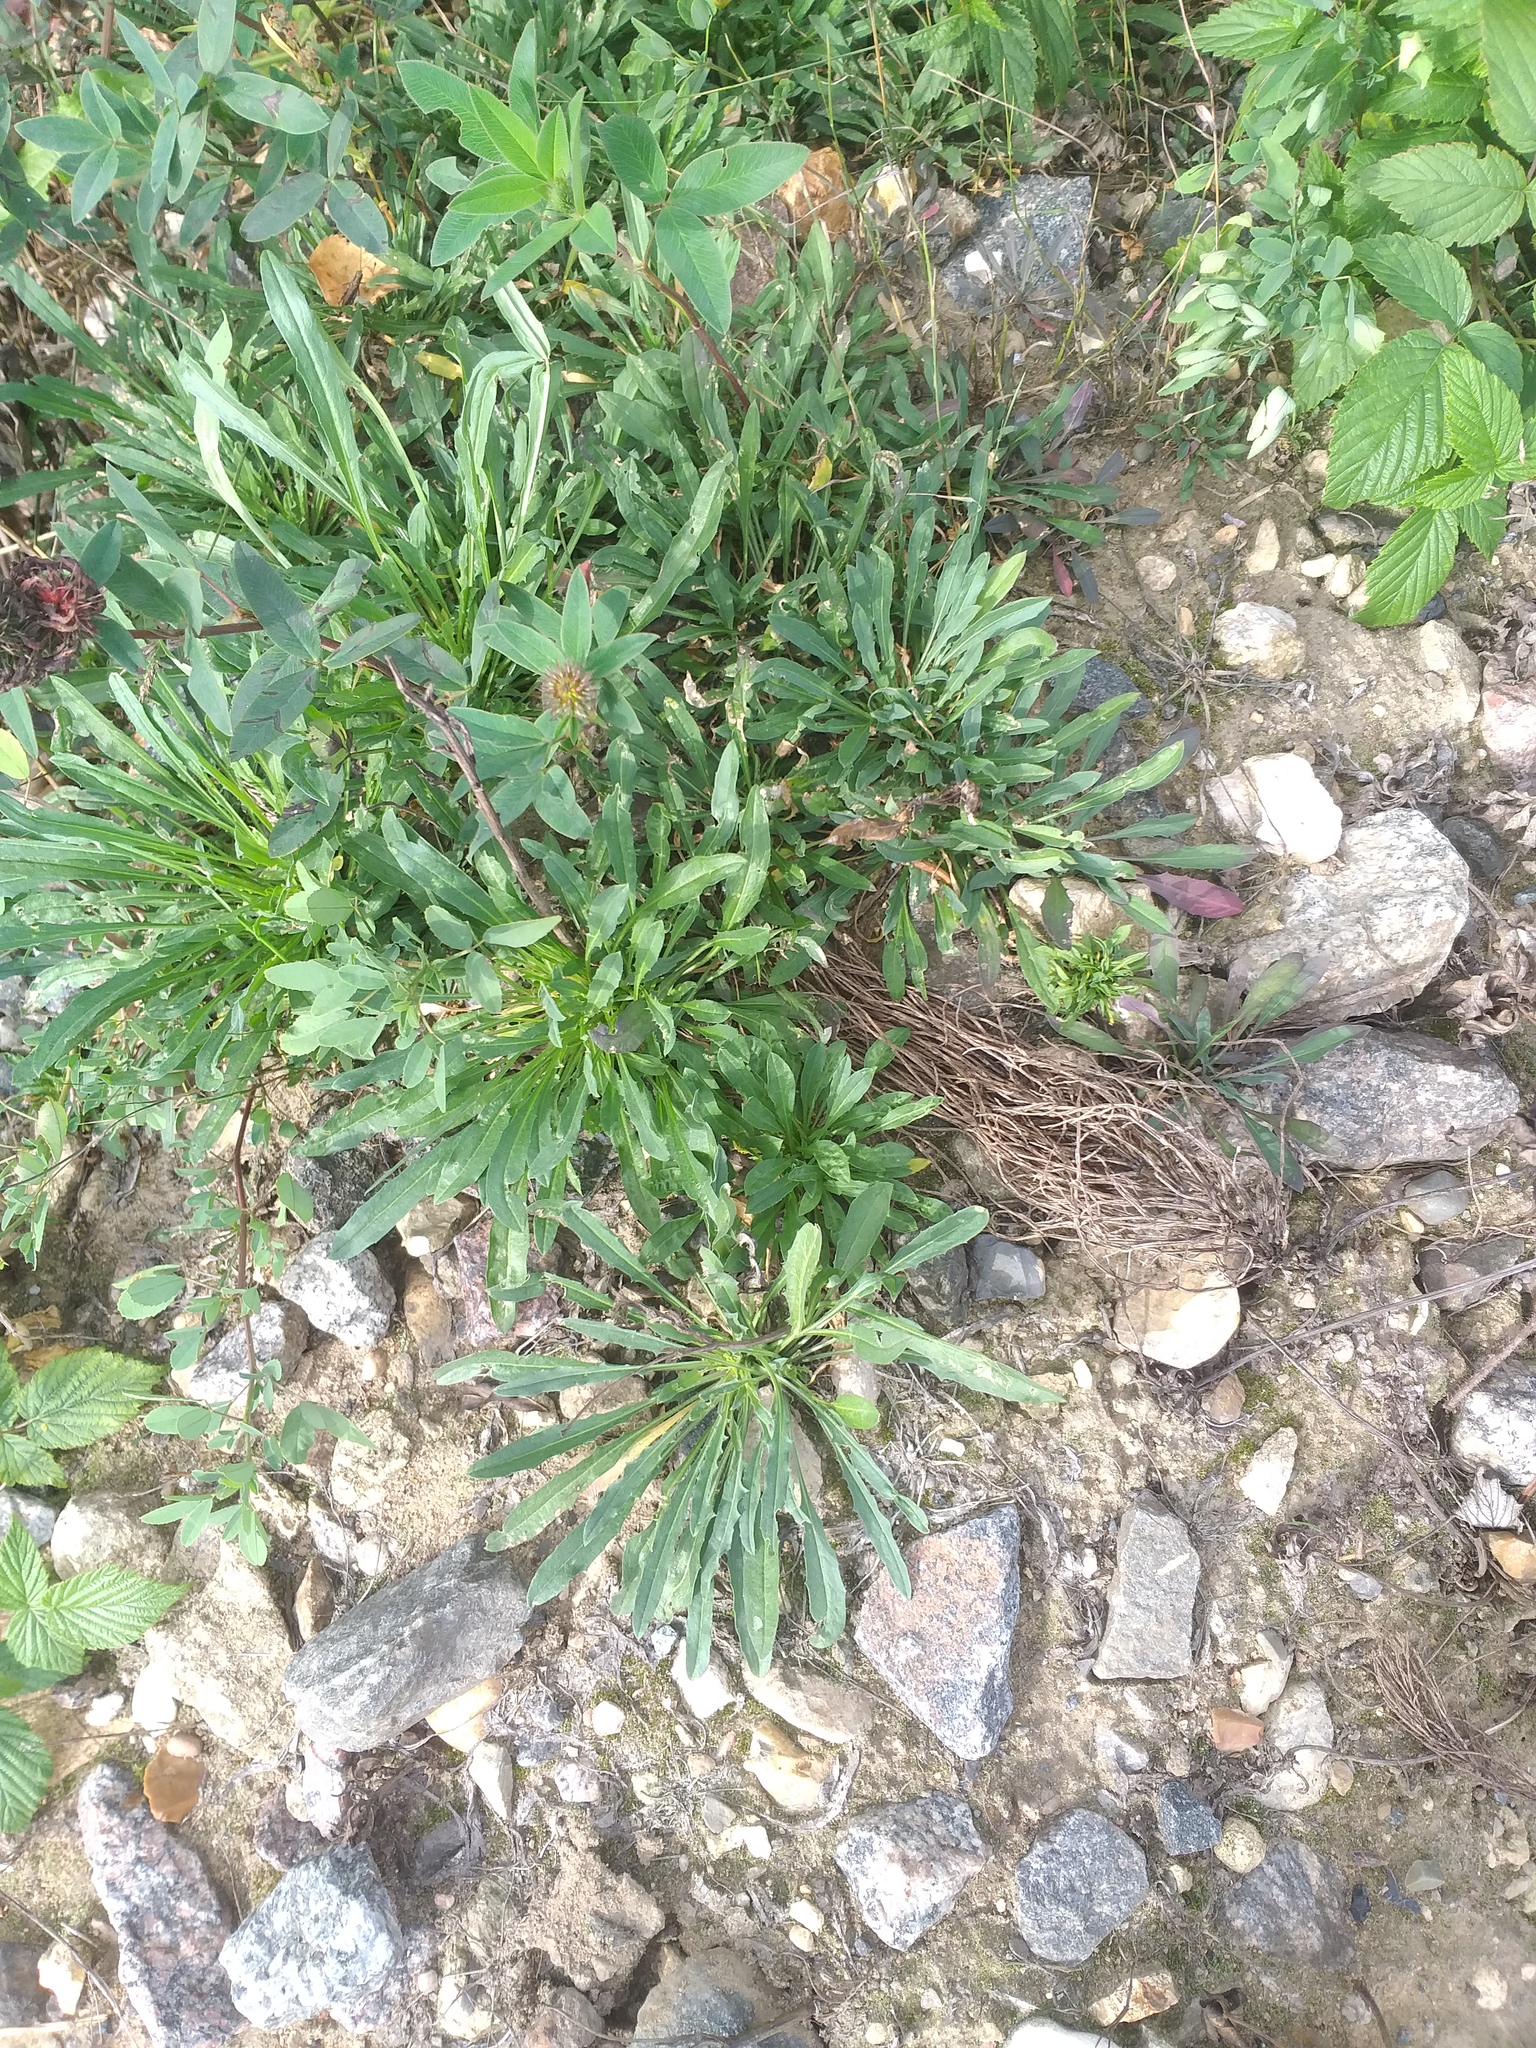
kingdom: Plantae
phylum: Tracheophyta
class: Magnoliopsida
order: Brassicales
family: Brassicaceae
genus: Erysimum
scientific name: Erysimum hieraciifolium
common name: European wallflower
